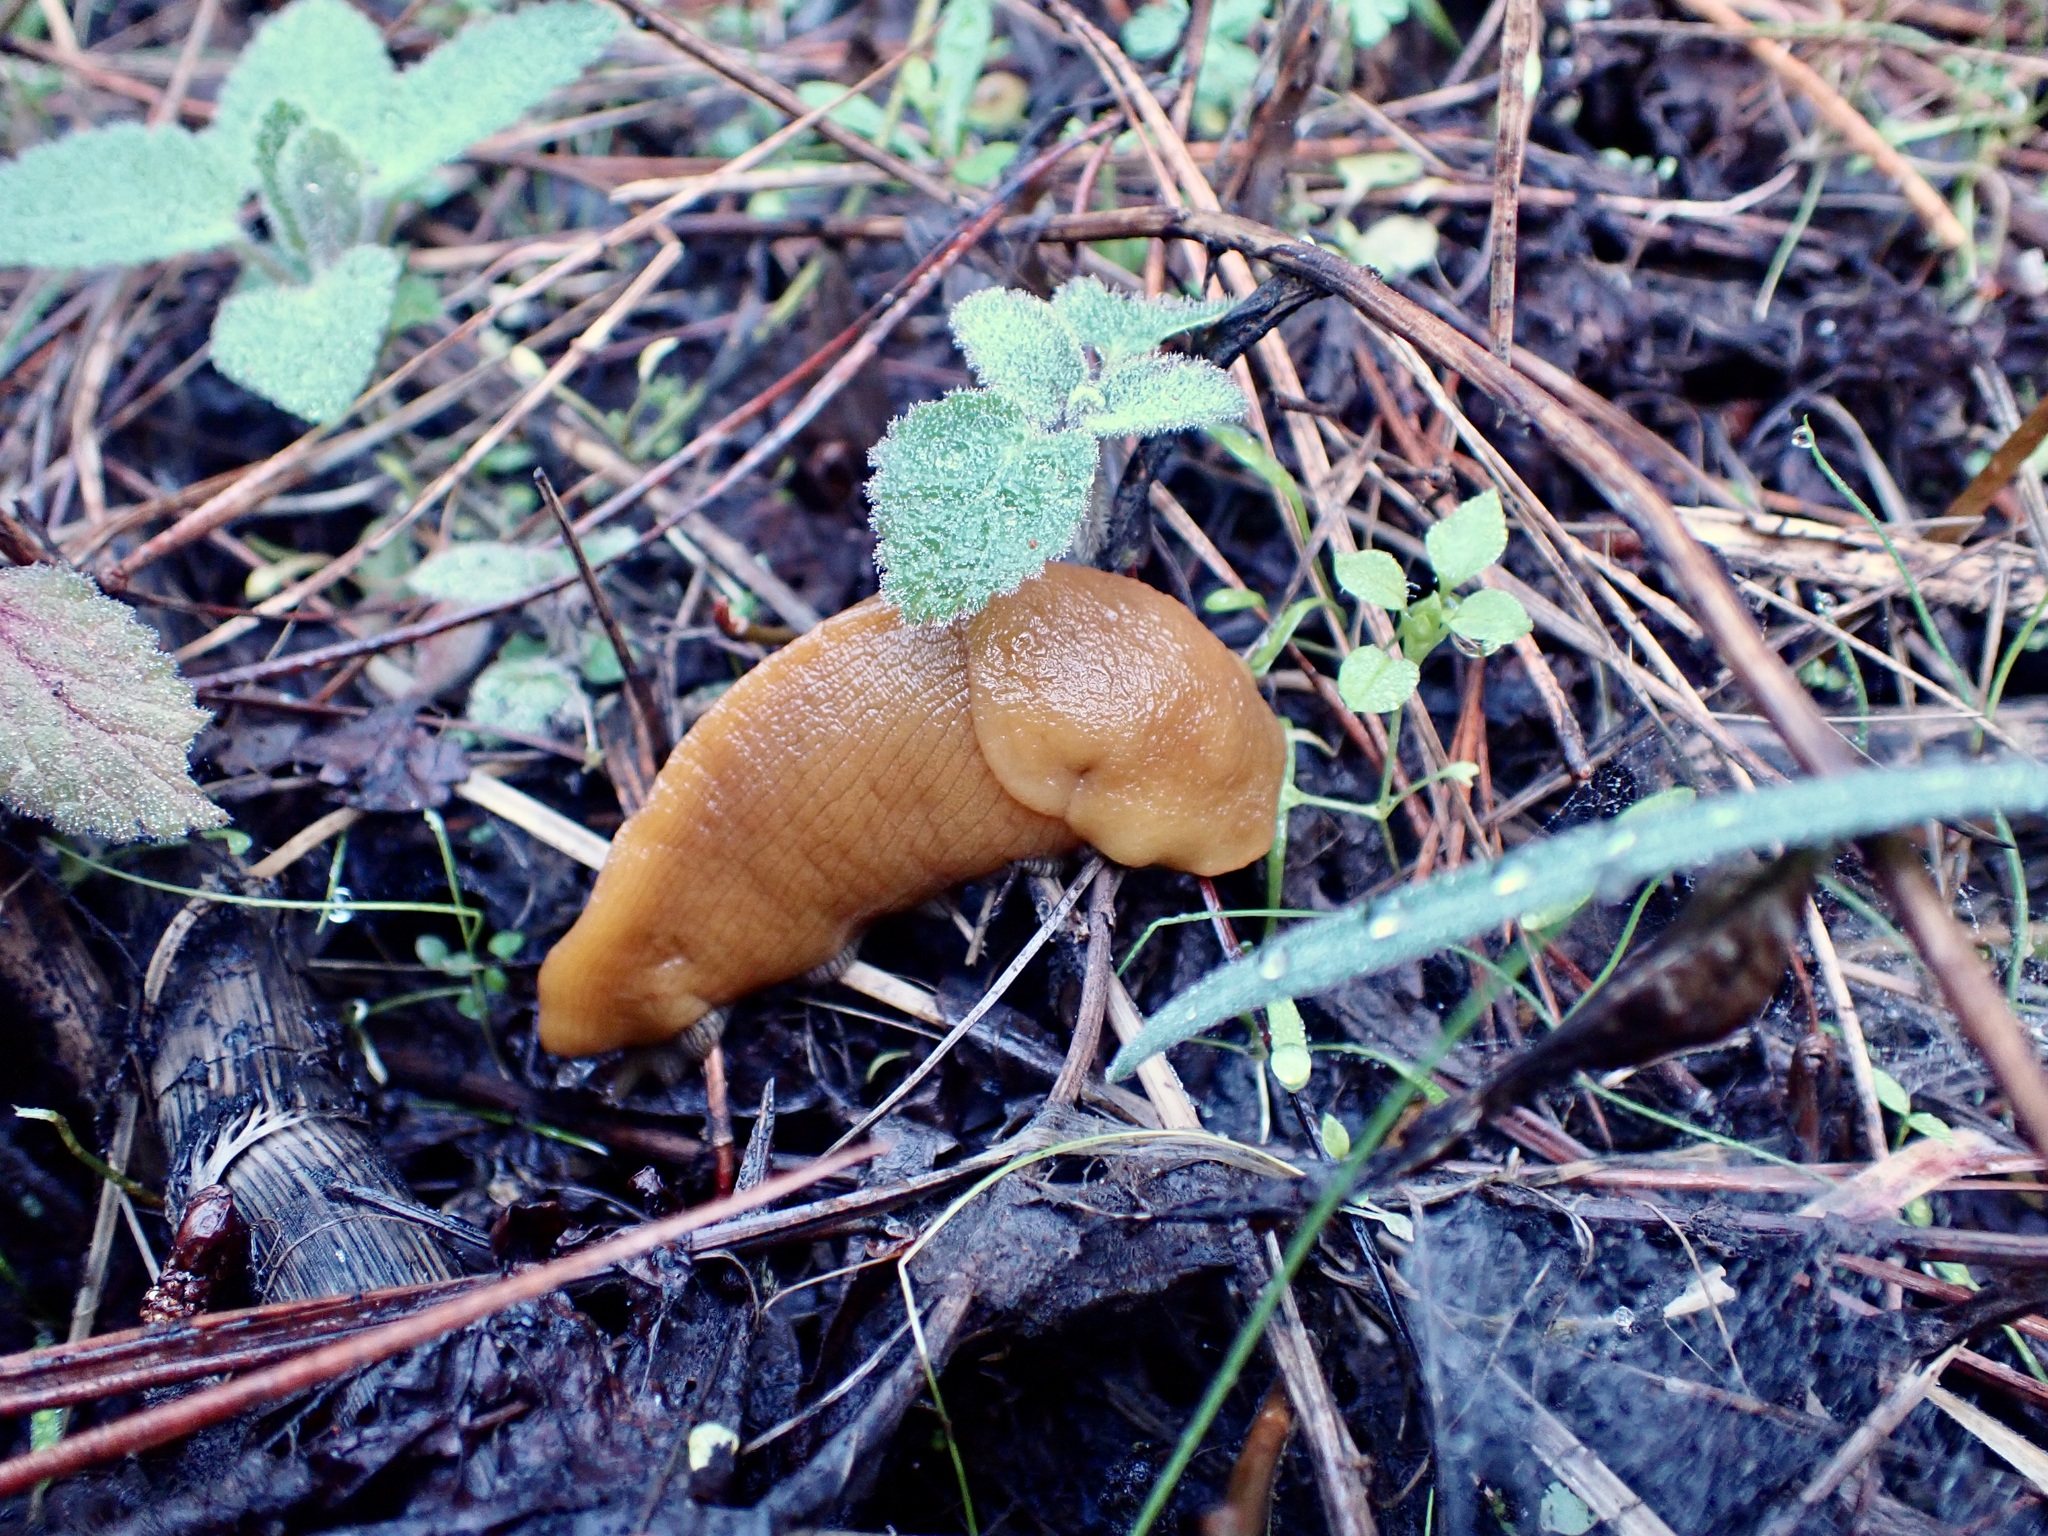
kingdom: Animalia
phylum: Mollusca
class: Gastropoda
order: Stylommatophora
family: Ariolimacidae
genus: Ariolimax
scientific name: Ariolimax californicus
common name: California banana slug
